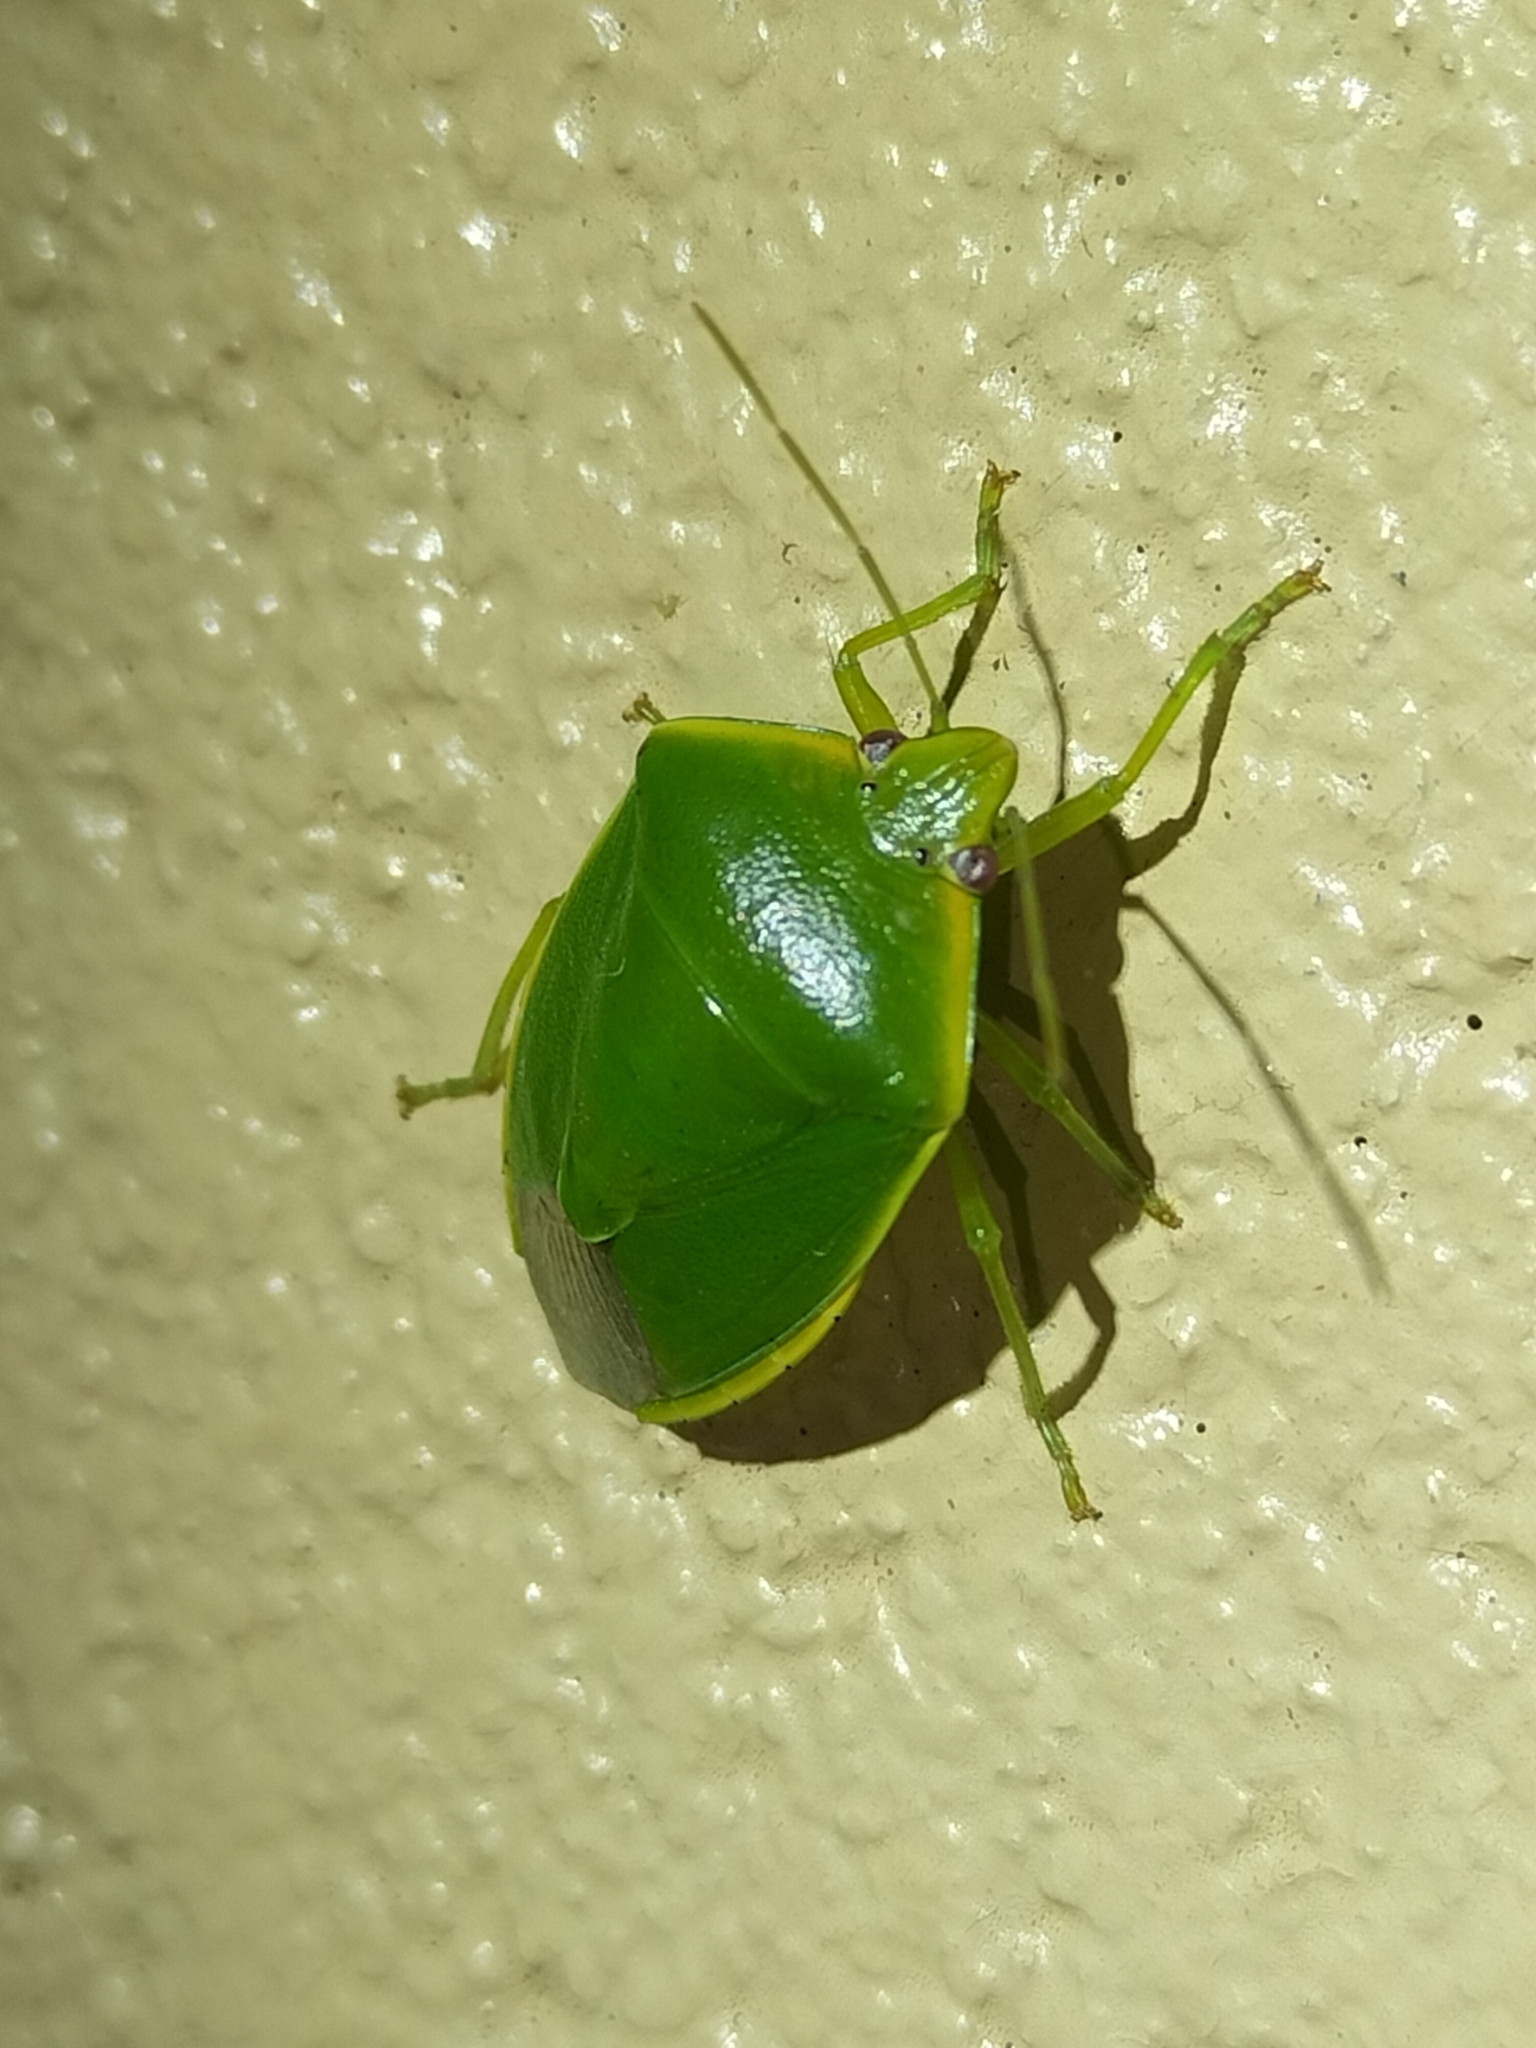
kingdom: Animalia
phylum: Arthropoda
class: Insecta
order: Hemiptera
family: Pentatomidae
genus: Glaucias
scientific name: Glaucias
